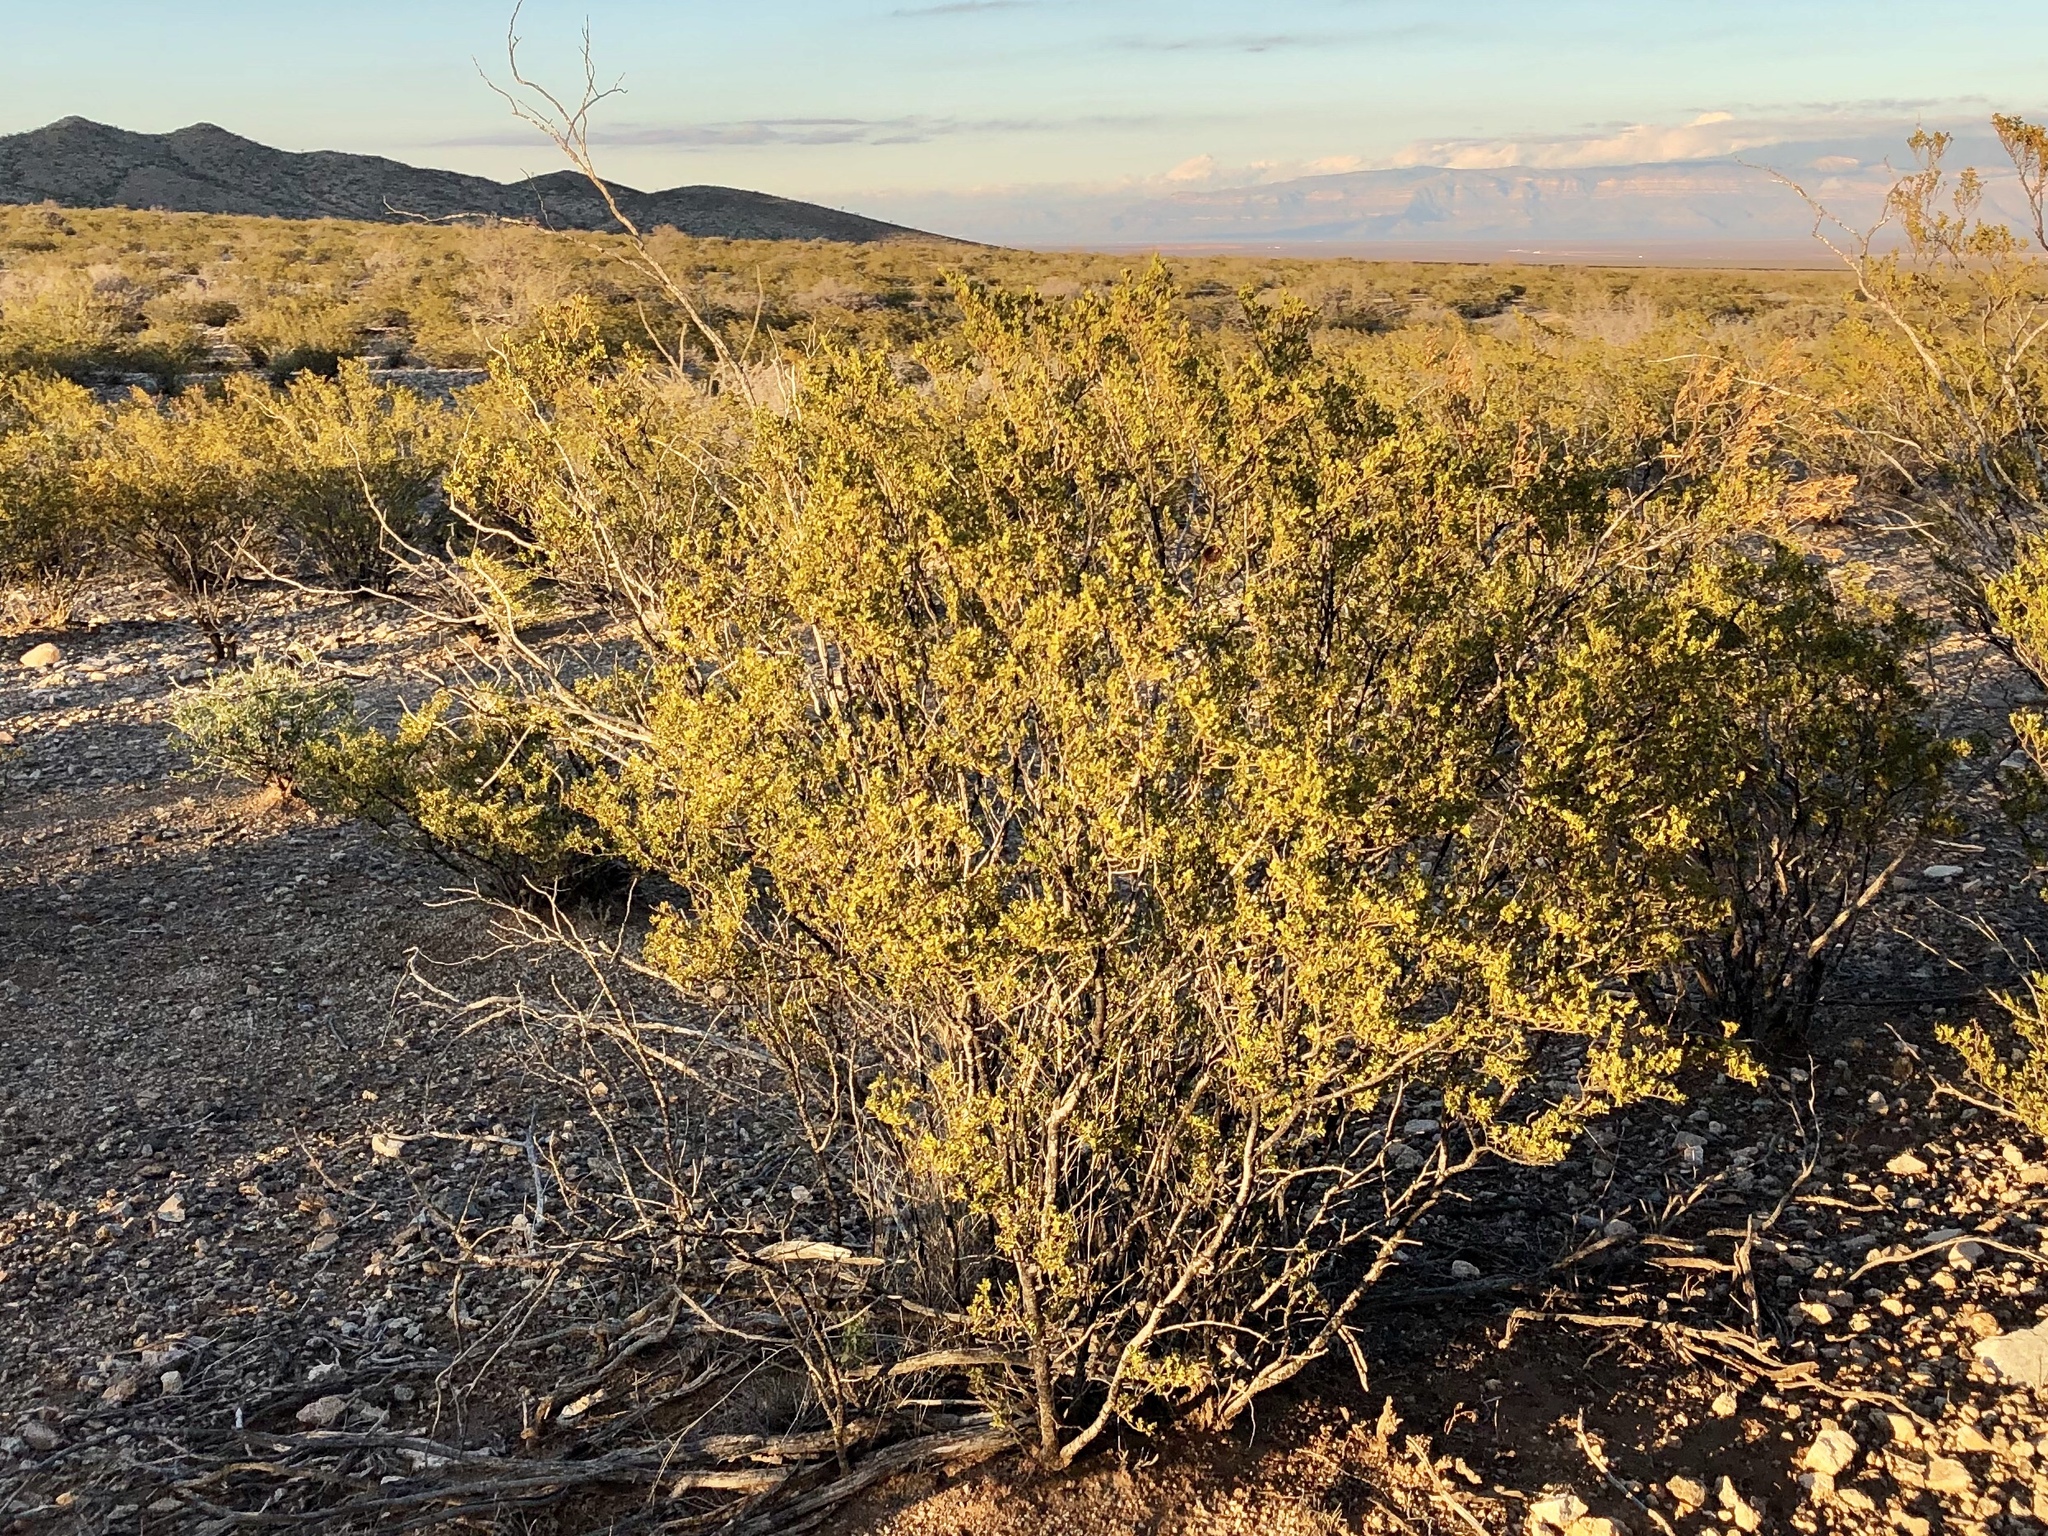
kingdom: Plantae
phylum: Tracheophyta
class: Magnoliopsida
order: Zygophyllales
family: Zygophyllaceae
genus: Larrea
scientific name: Larrea tridentata
